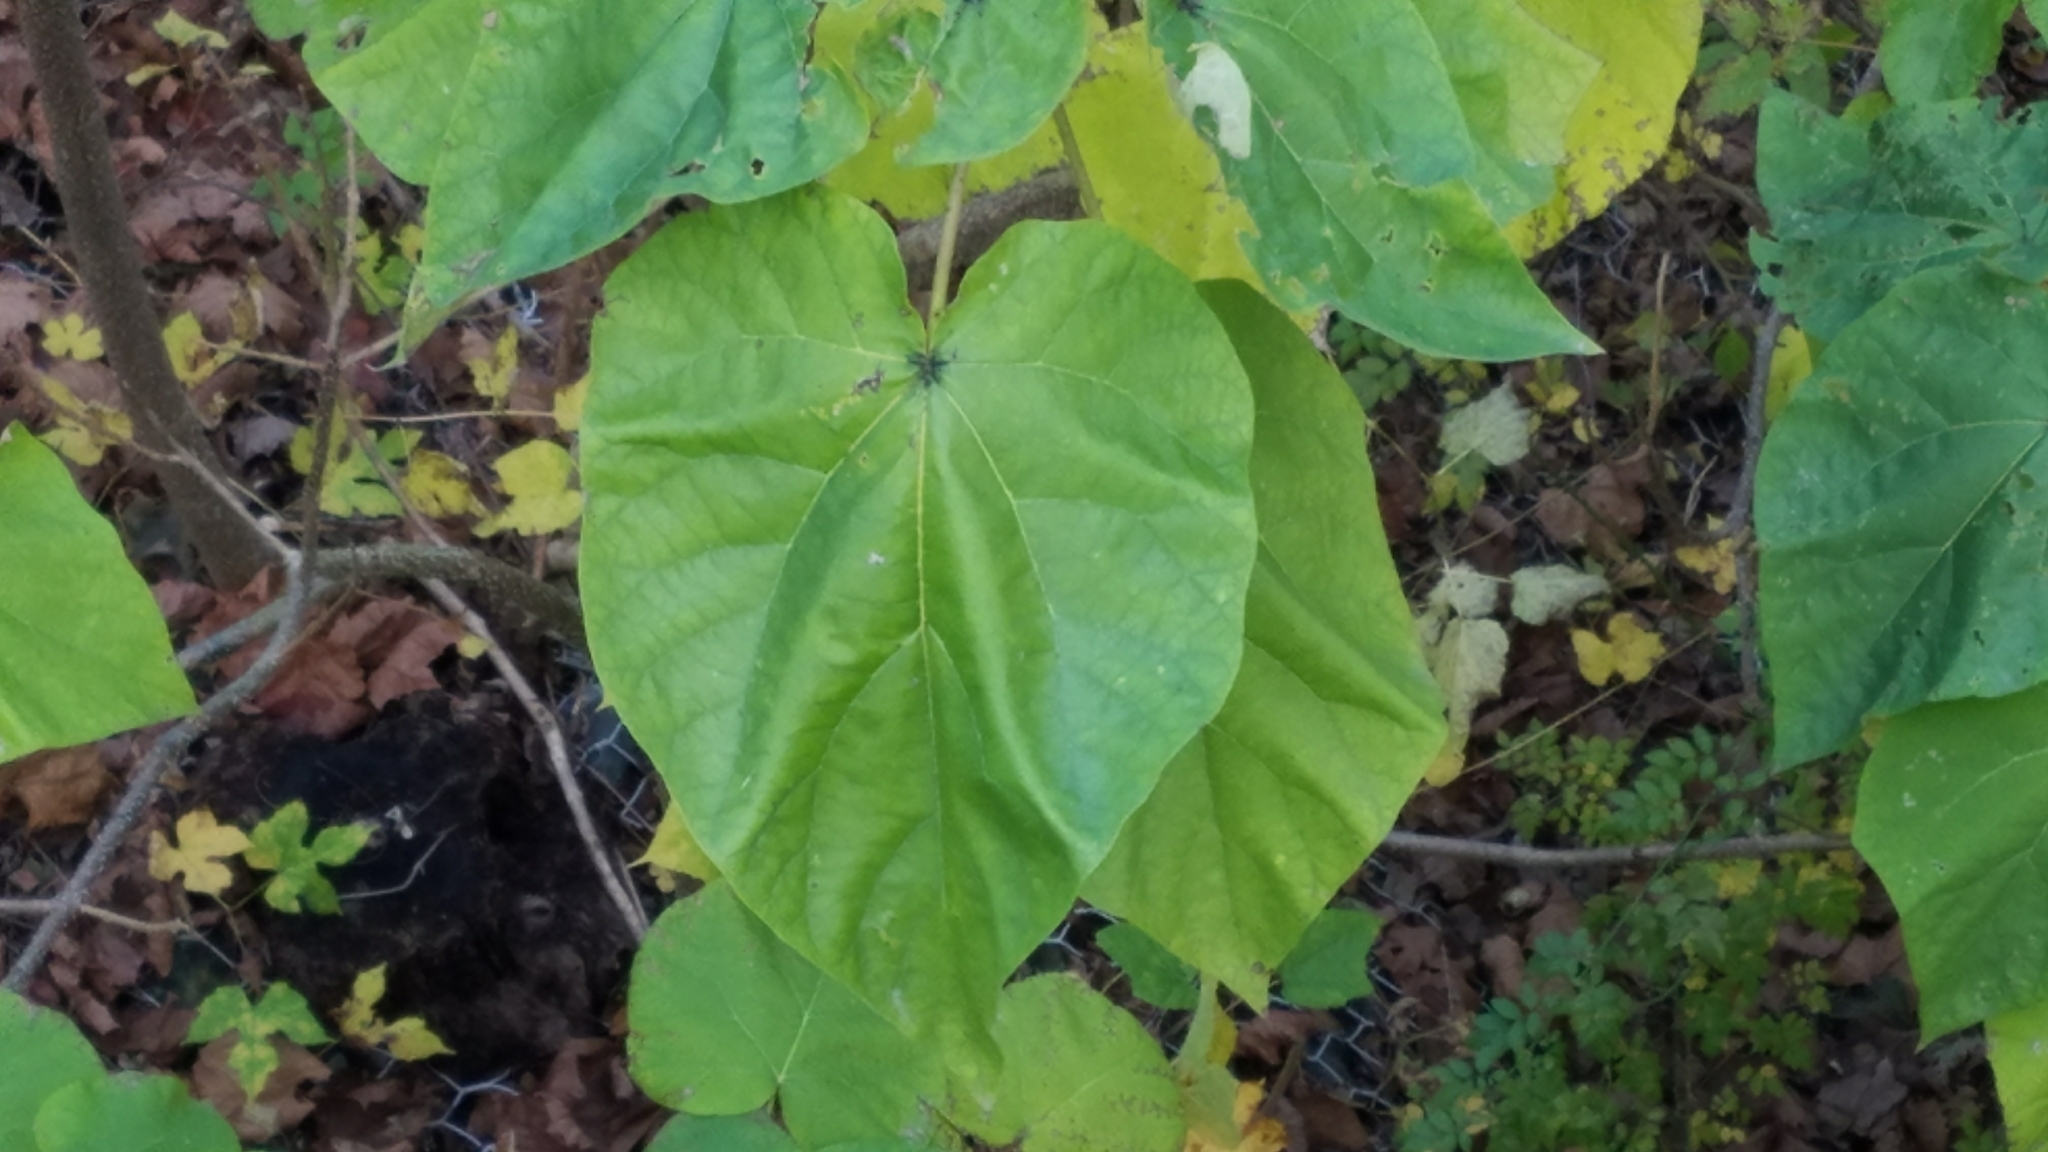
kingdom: Plantae
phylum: Tracheophyta
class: Magnoliopsida
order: Lamiales
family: Paulowniaceae
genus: Paulownia
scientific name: Paulownia tomentosa
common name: Foxglove-tree
